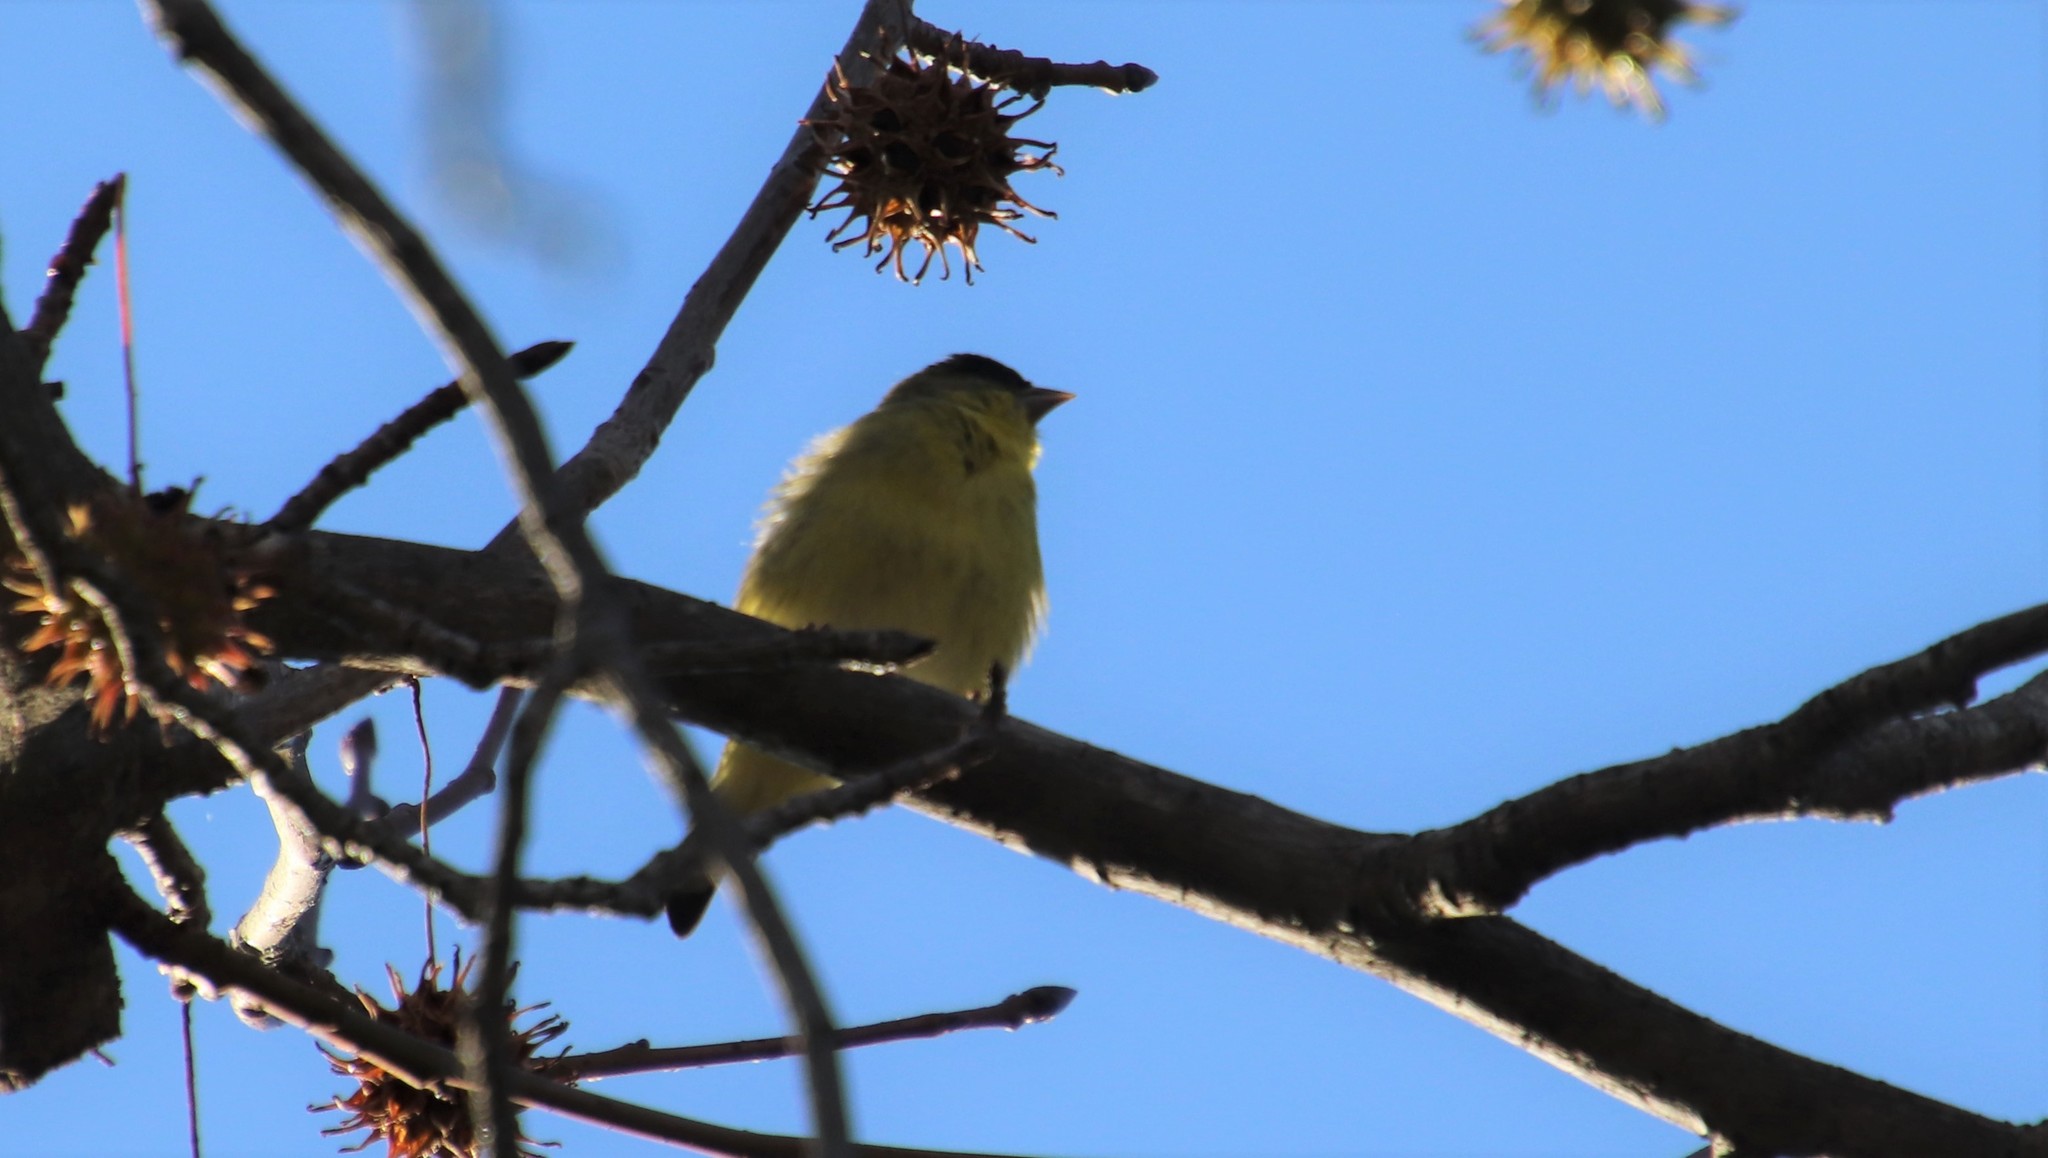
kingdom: Animalia
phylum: Chordata
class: Aves
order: Passeriformes
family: Fringillidae
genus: Spinus
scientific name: Spinus psaltria
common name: Lesser goldfinch
